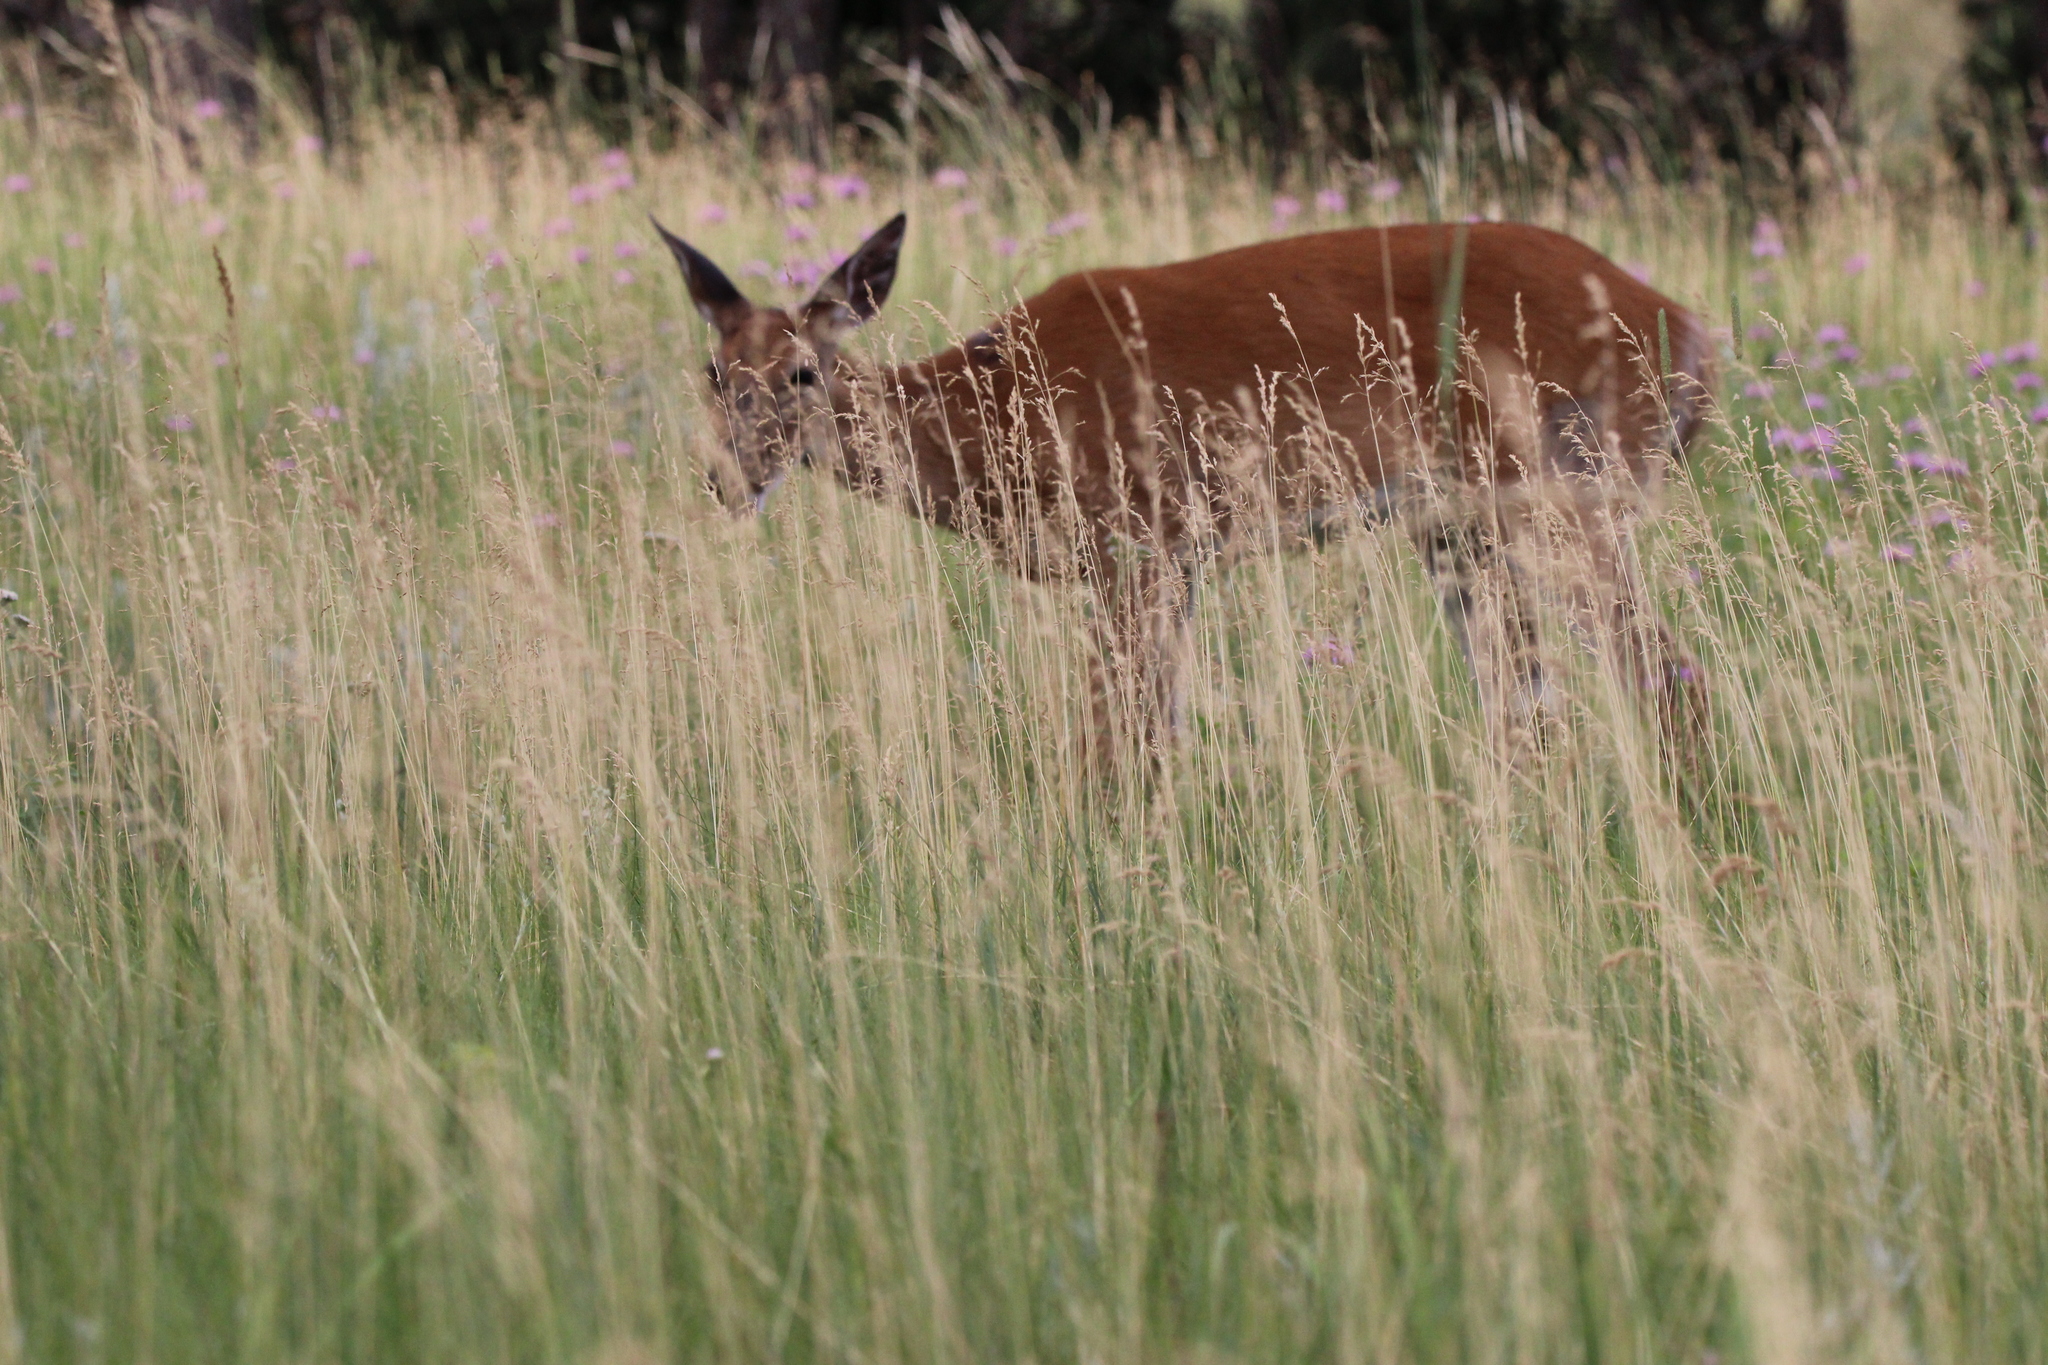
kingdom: Animalia
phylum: Chordata
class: Mammalia
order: Artiodactyla
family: Cervidae
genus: Odocoileus
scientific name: Odocoileus virginianus
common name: White-tailed deer
